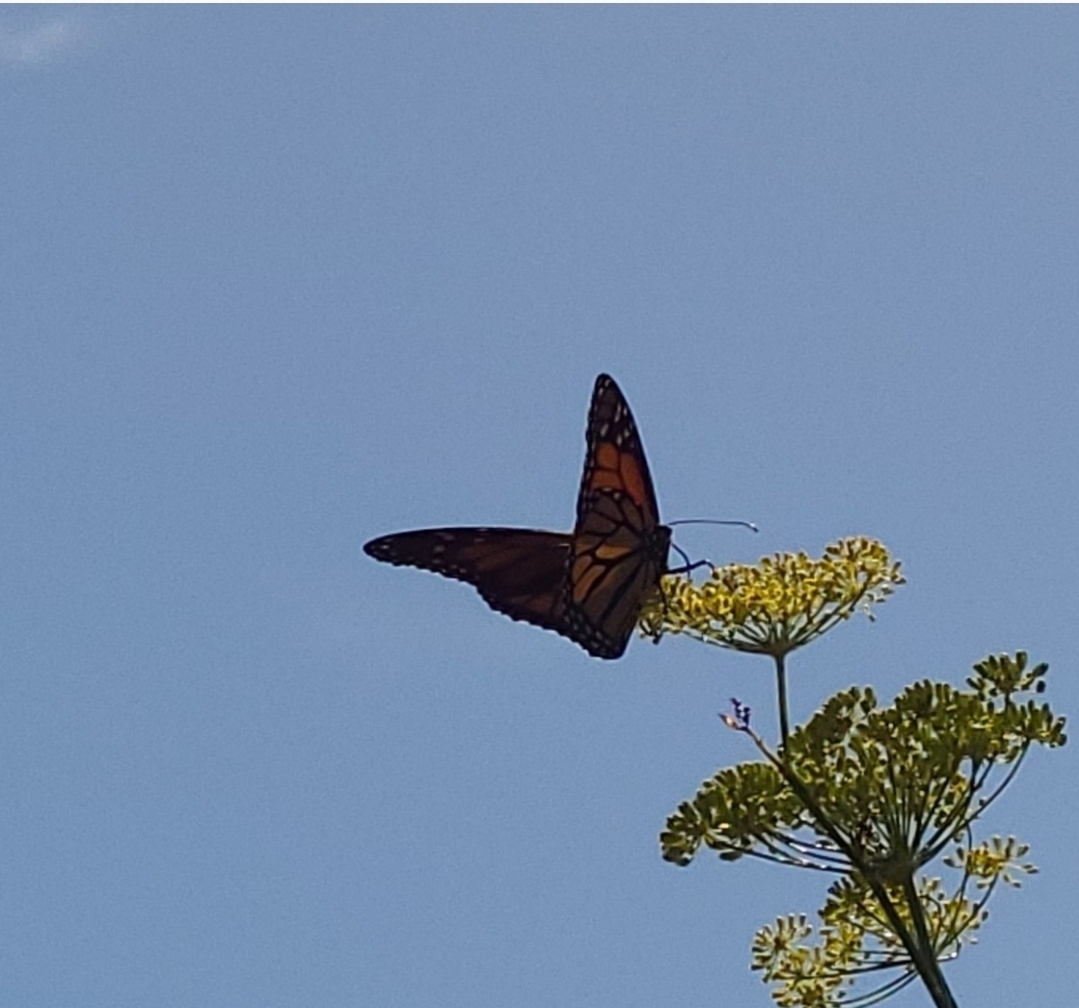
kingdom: Animalia
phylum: Arthropoda
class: Insecta
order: Lepidoptera
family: Nymphalidae
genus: Danaus
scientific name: Danaus plexippus
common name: Monarch
